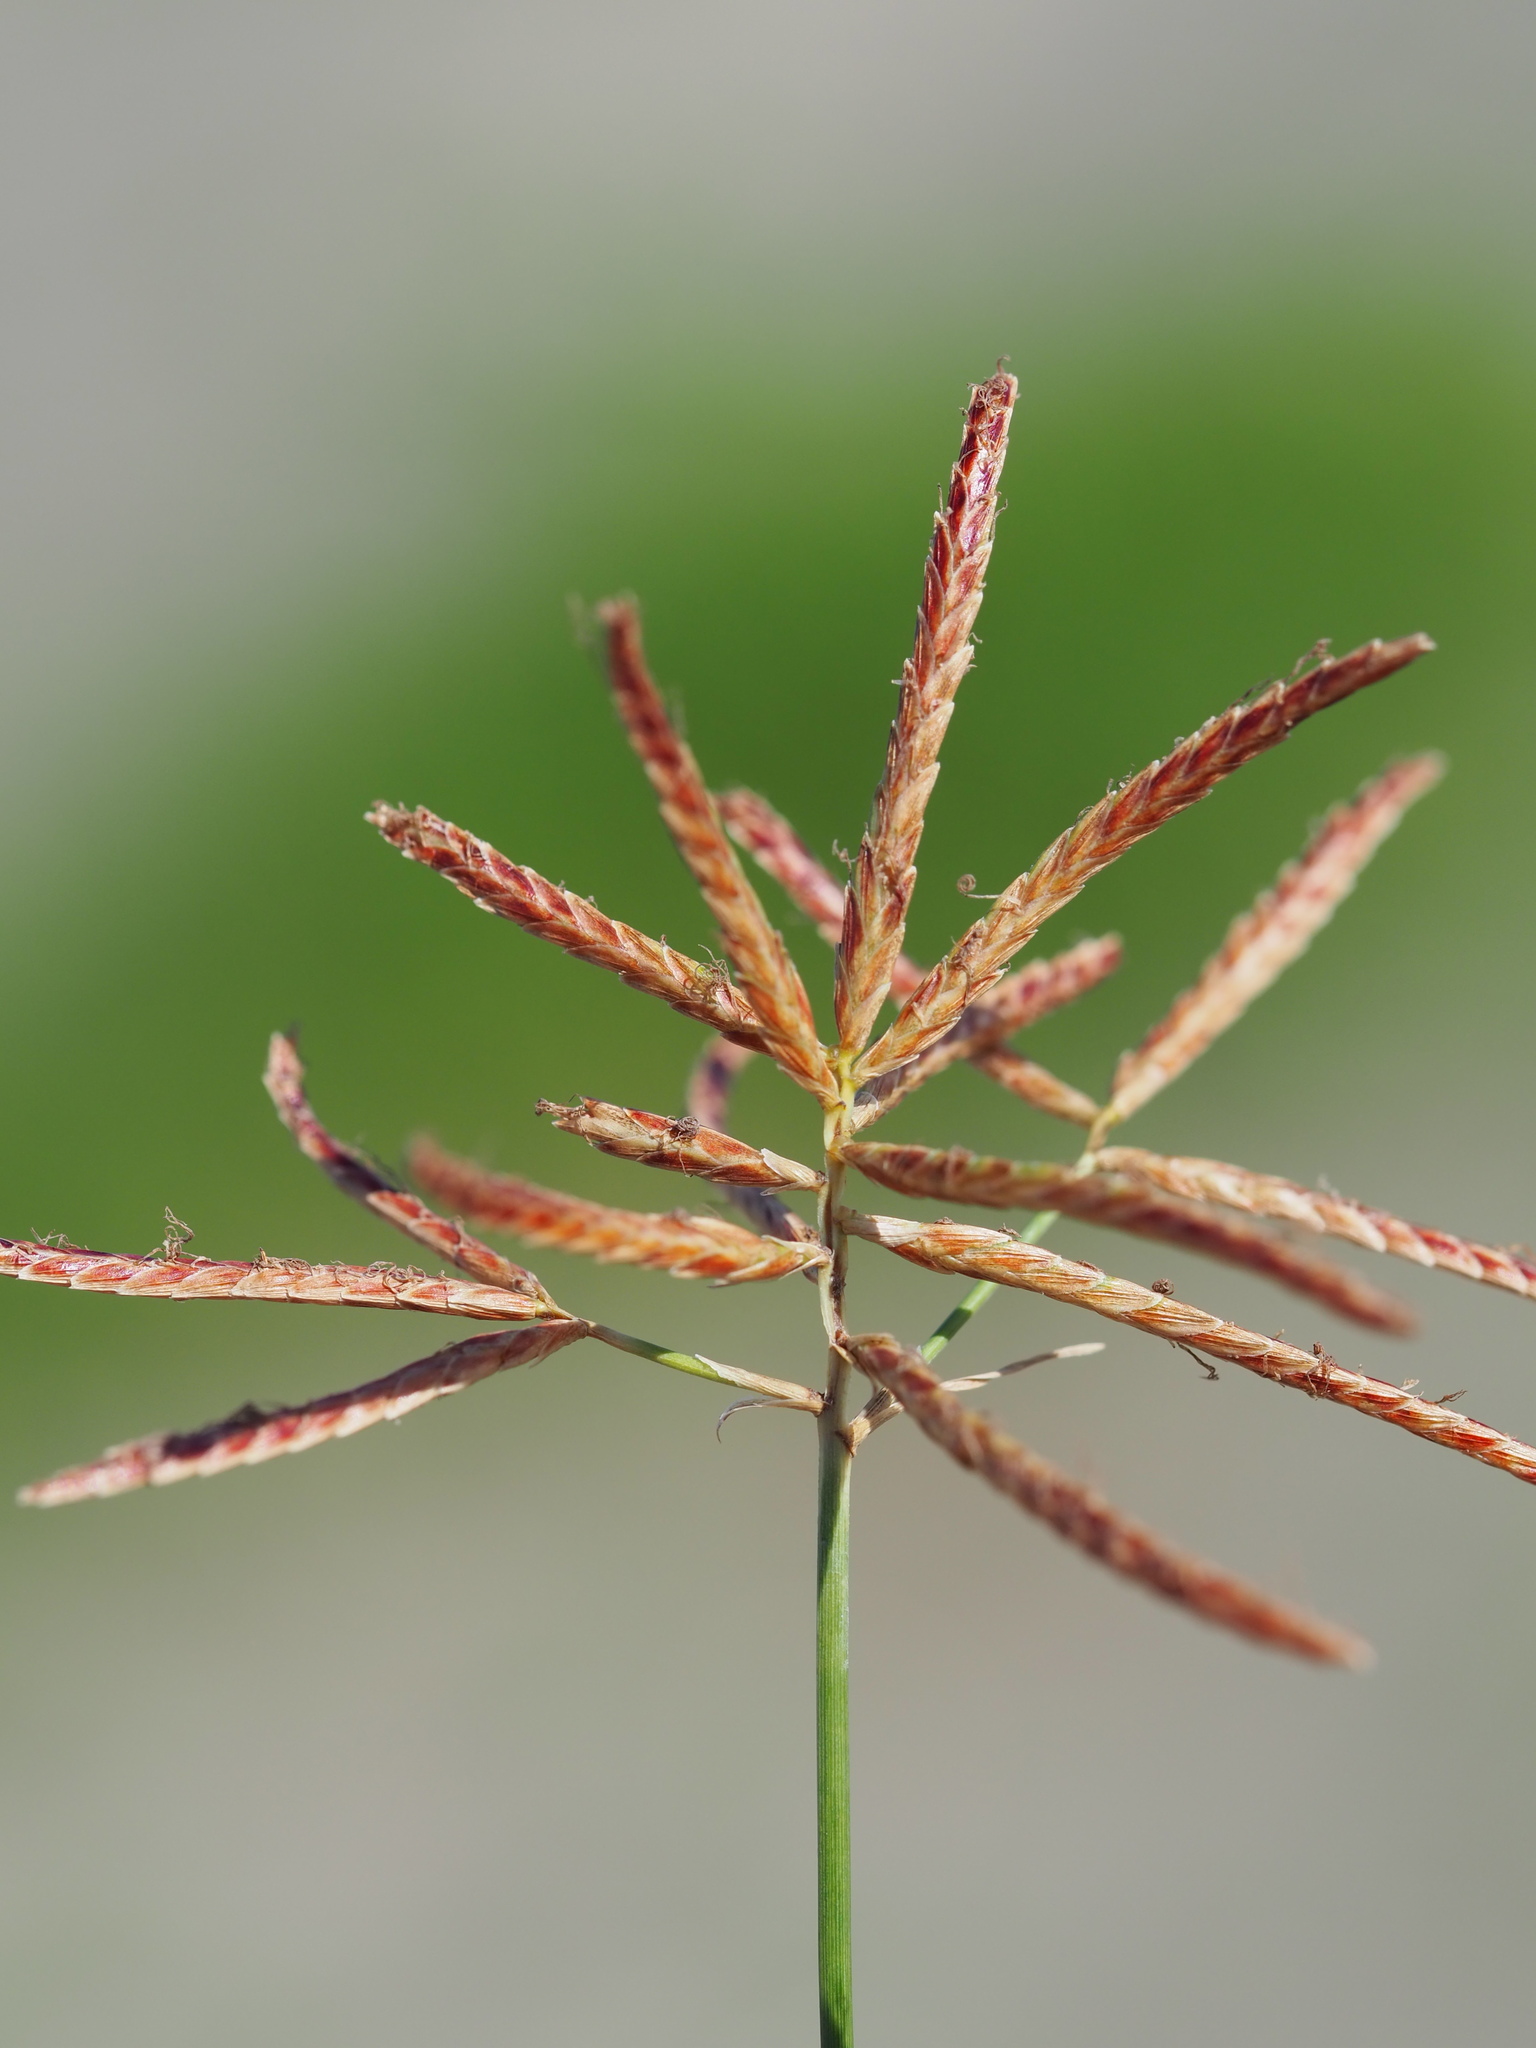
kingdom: Plantae
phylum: Tracheophyta
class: Liliopsida
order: Poales
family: Cyperaceae
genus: Cyperus
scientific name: Cyperus rotundus
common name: Nutgrass
